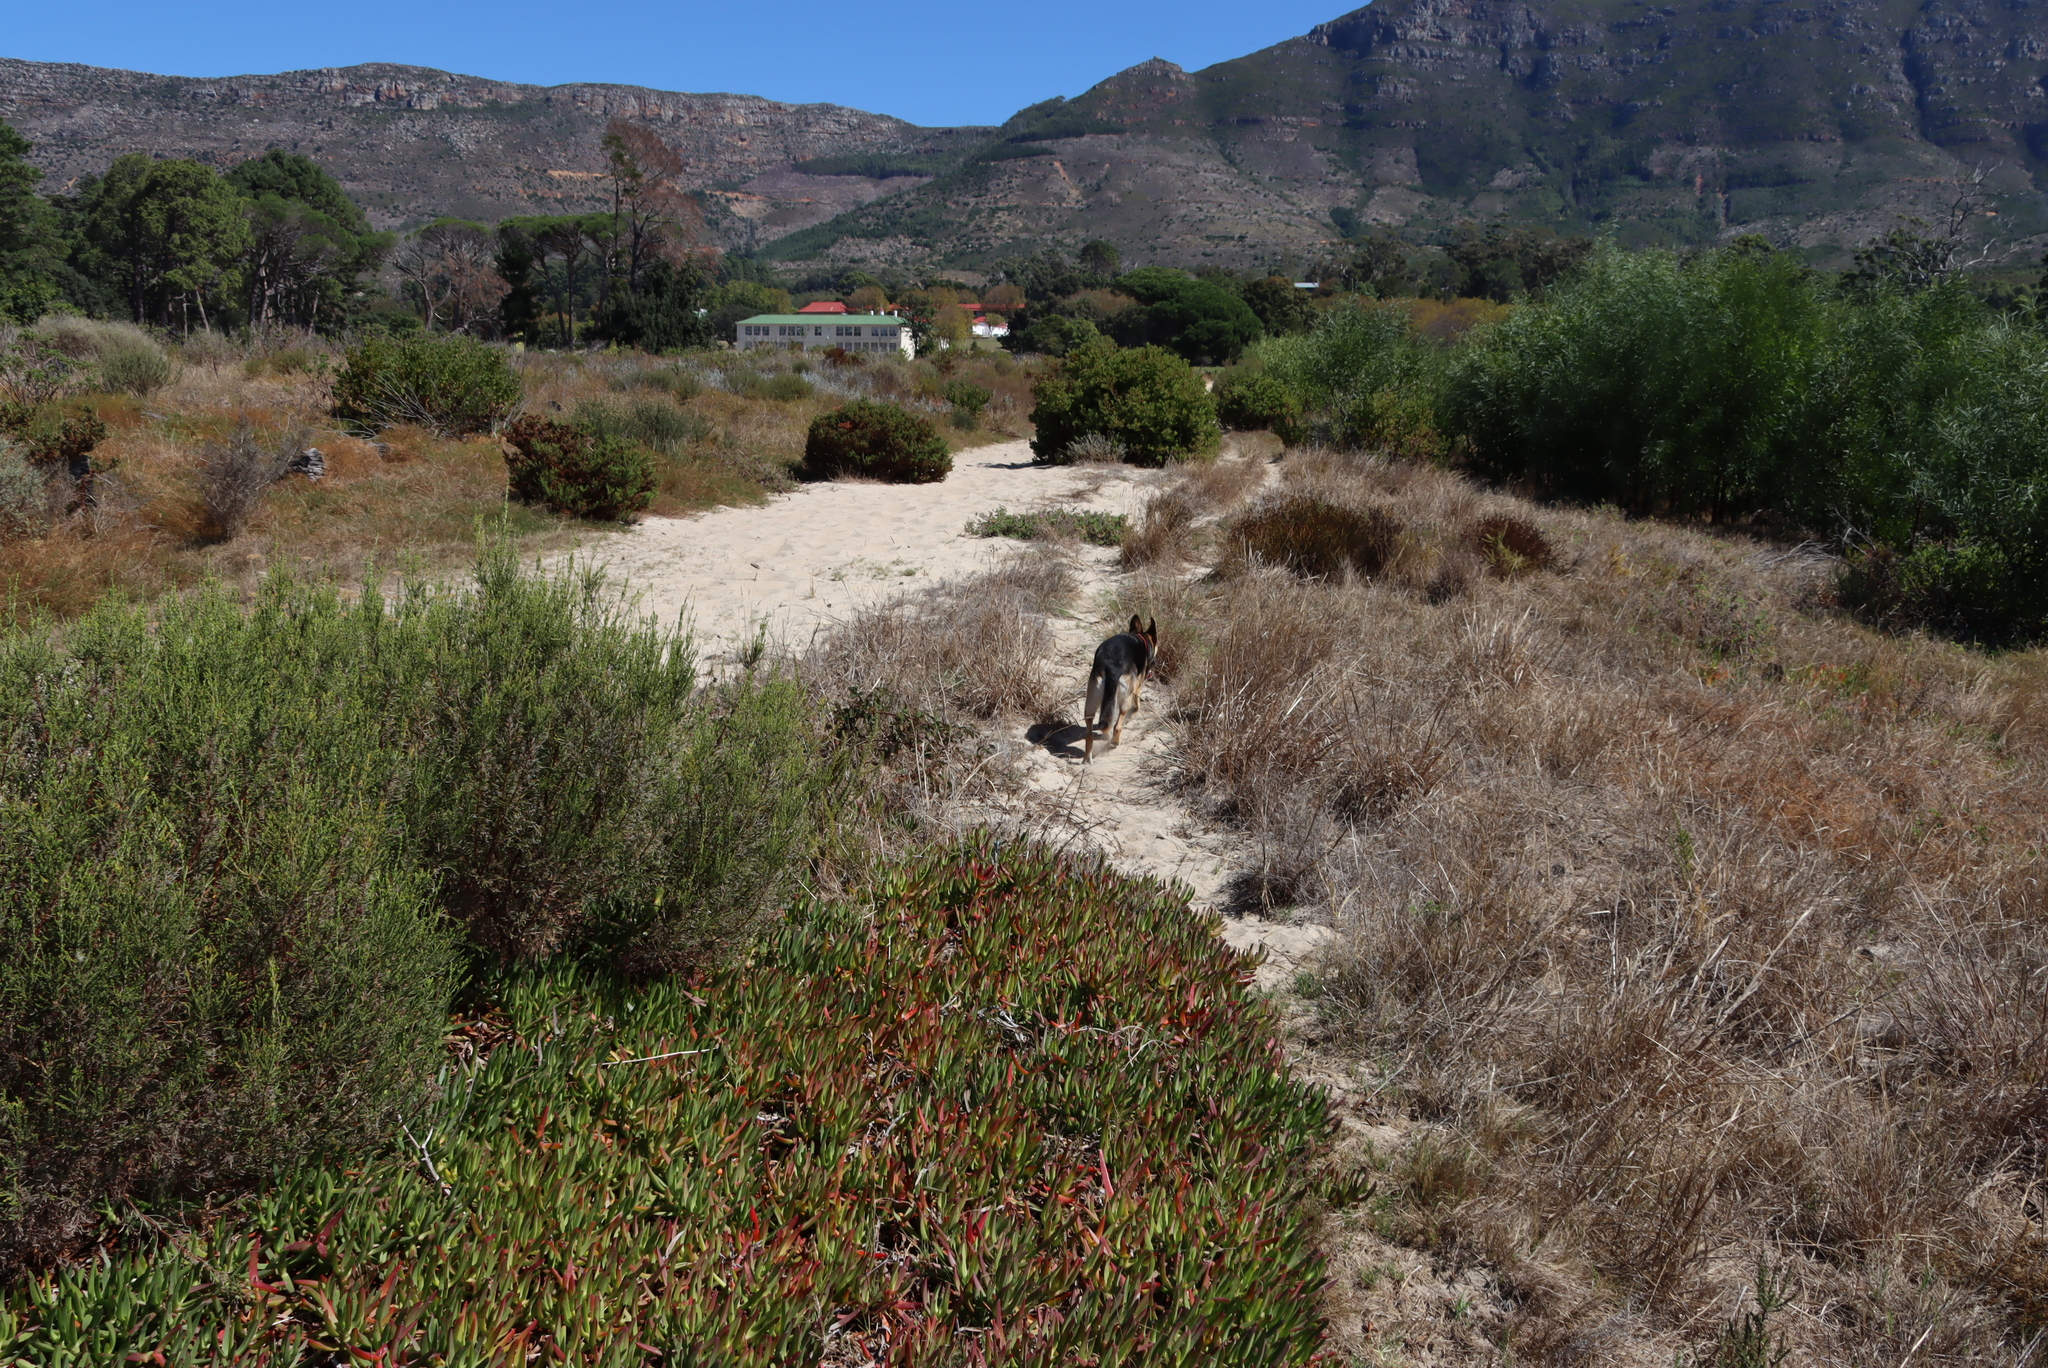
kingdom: Plantae
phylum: Tracheophyta
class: Magnoliopsida
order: Caryophyllales
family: Aizoaceae
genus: Carpobrotus
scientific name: Carpobrotus edulis
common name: Hottentot-fig
